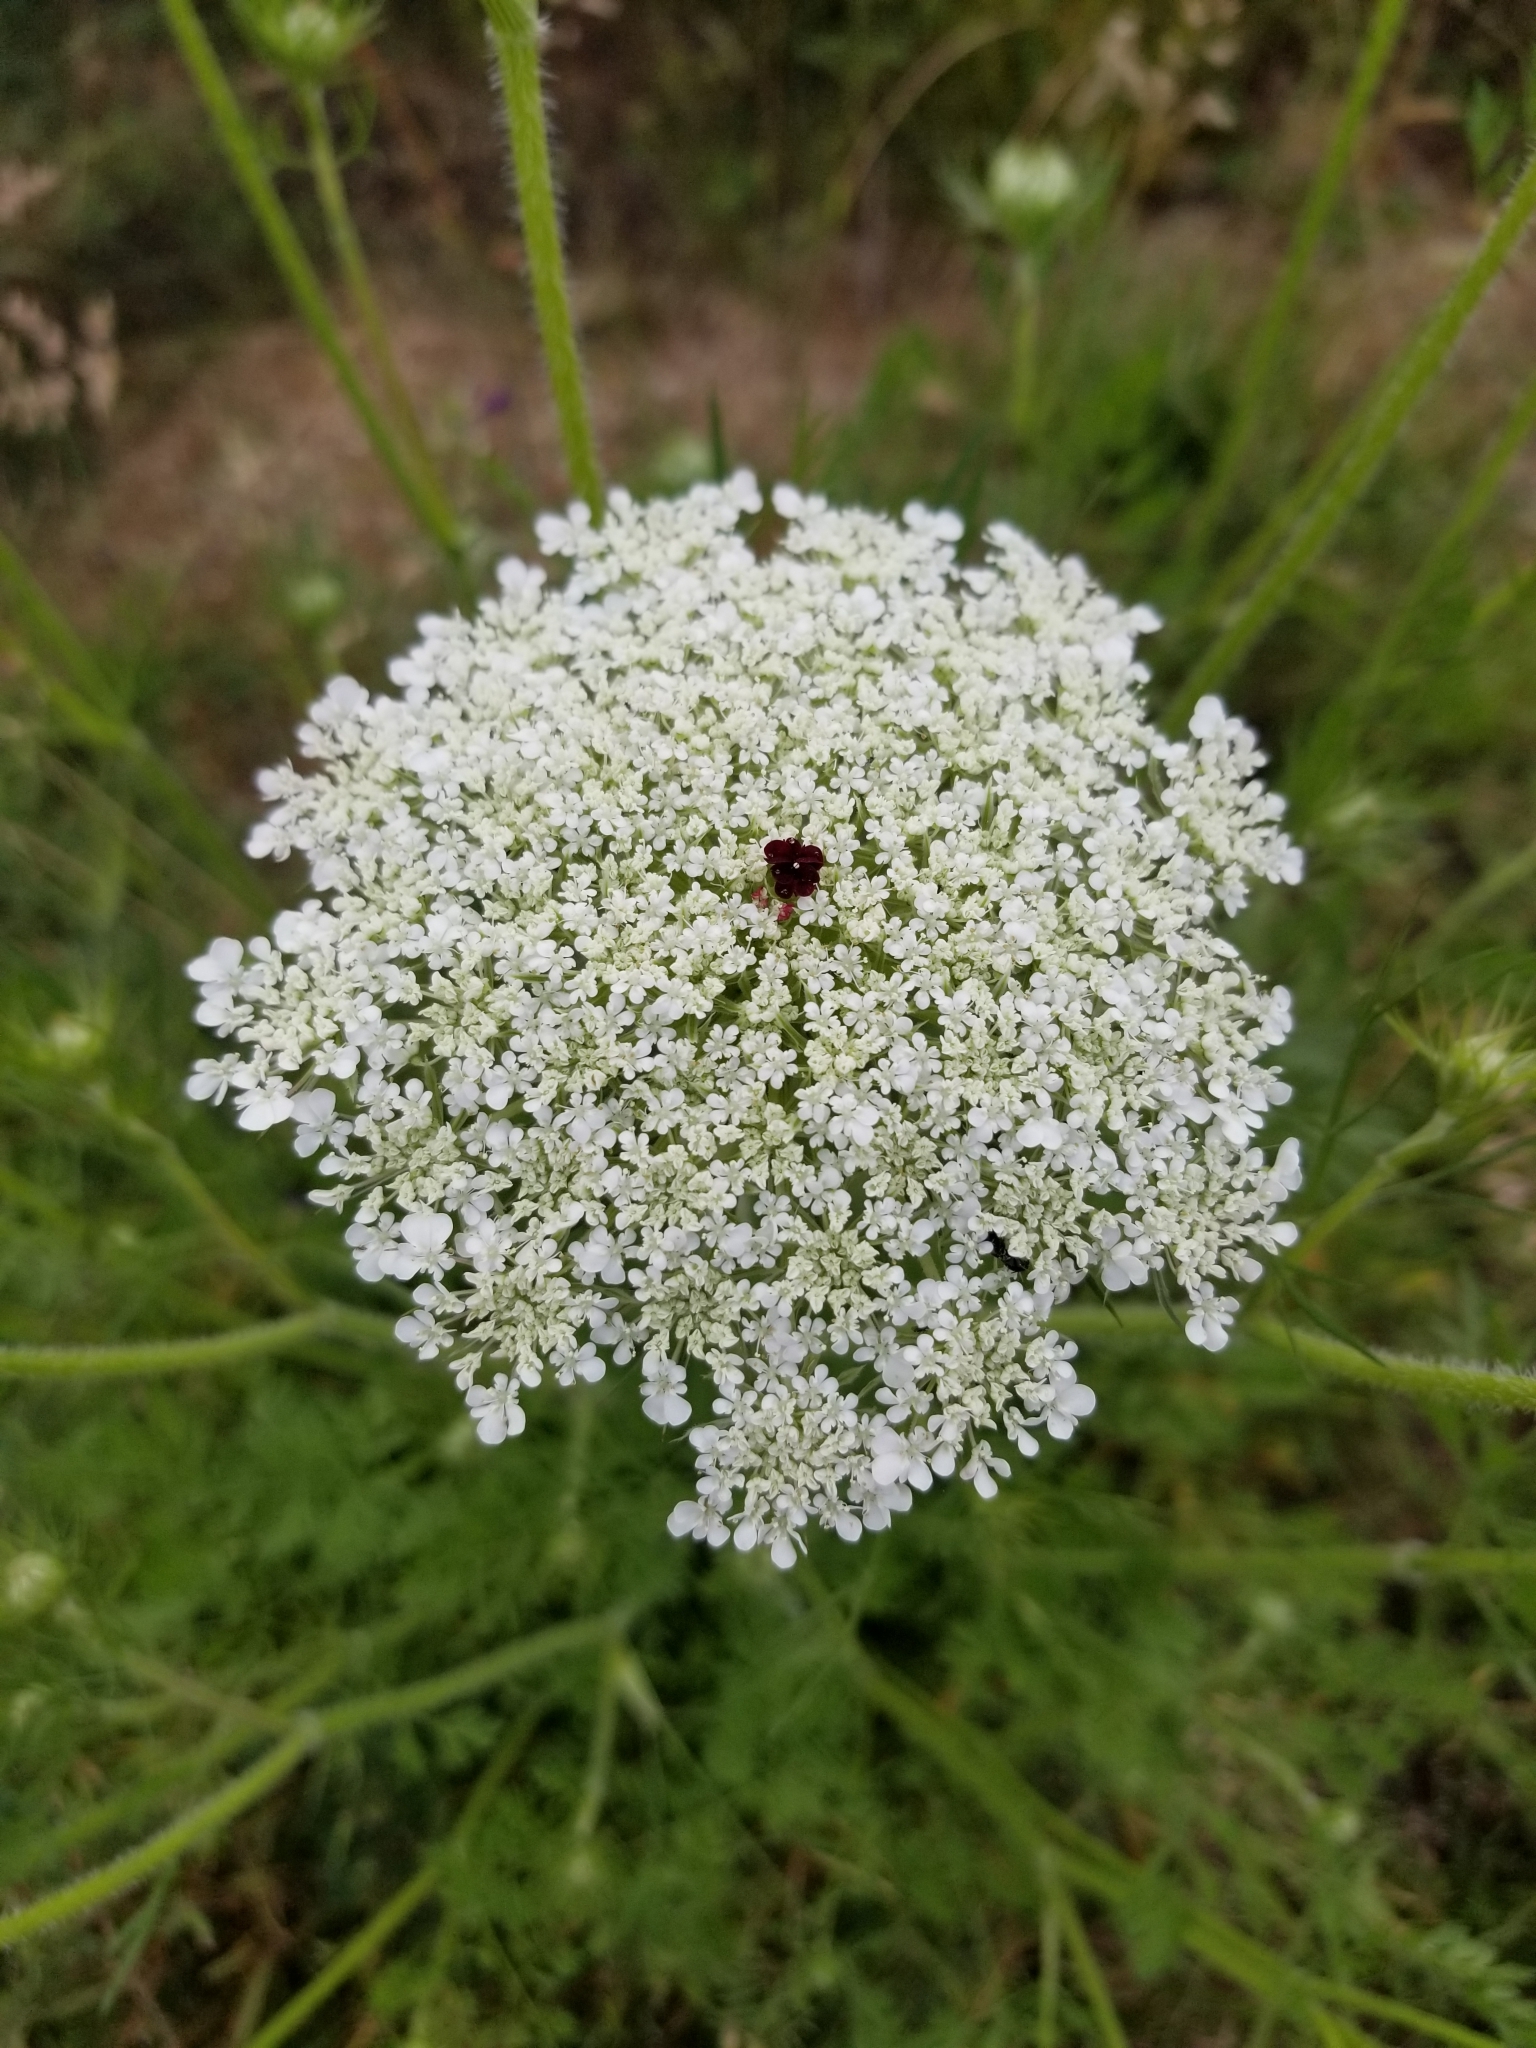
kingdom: Plantae
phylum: Tracheophyta
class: Magnoliopsida
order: Apiales
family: Apiaceae
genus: Daucus
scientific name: Daucus carota
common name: Wild carrot
